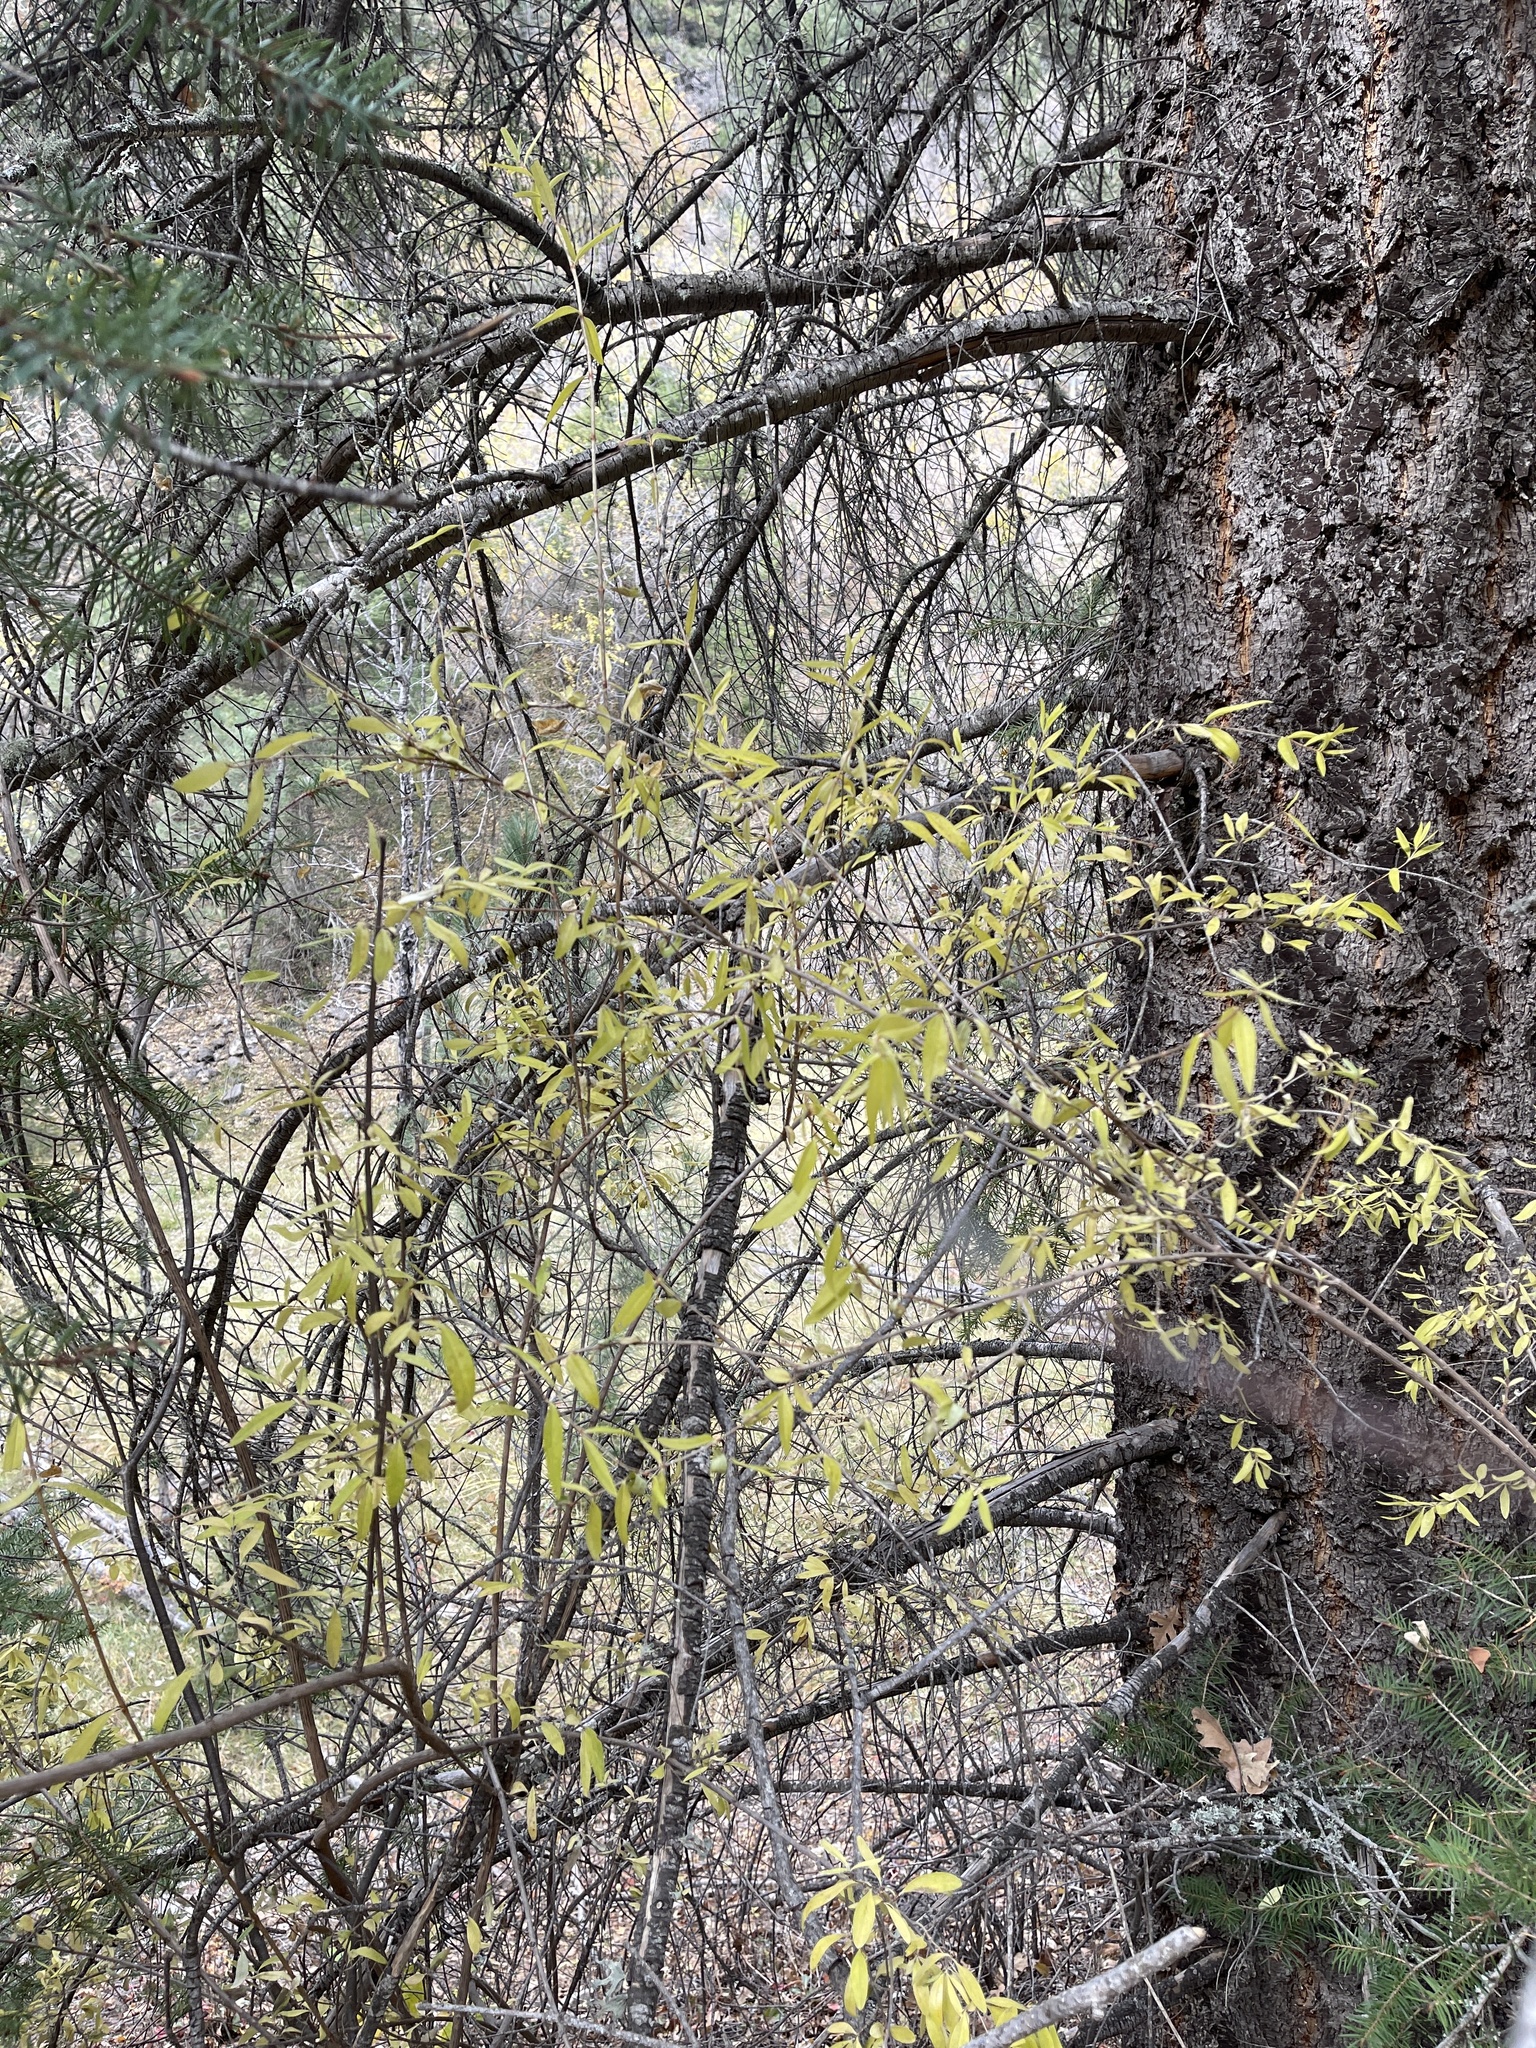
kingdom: Plantae
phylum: Tracheophyta
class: Magnoliopsida
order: Dipsacales
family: Viburnaceae
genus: Sambucus
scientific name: Sambucus cerulea
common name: Blue elder
